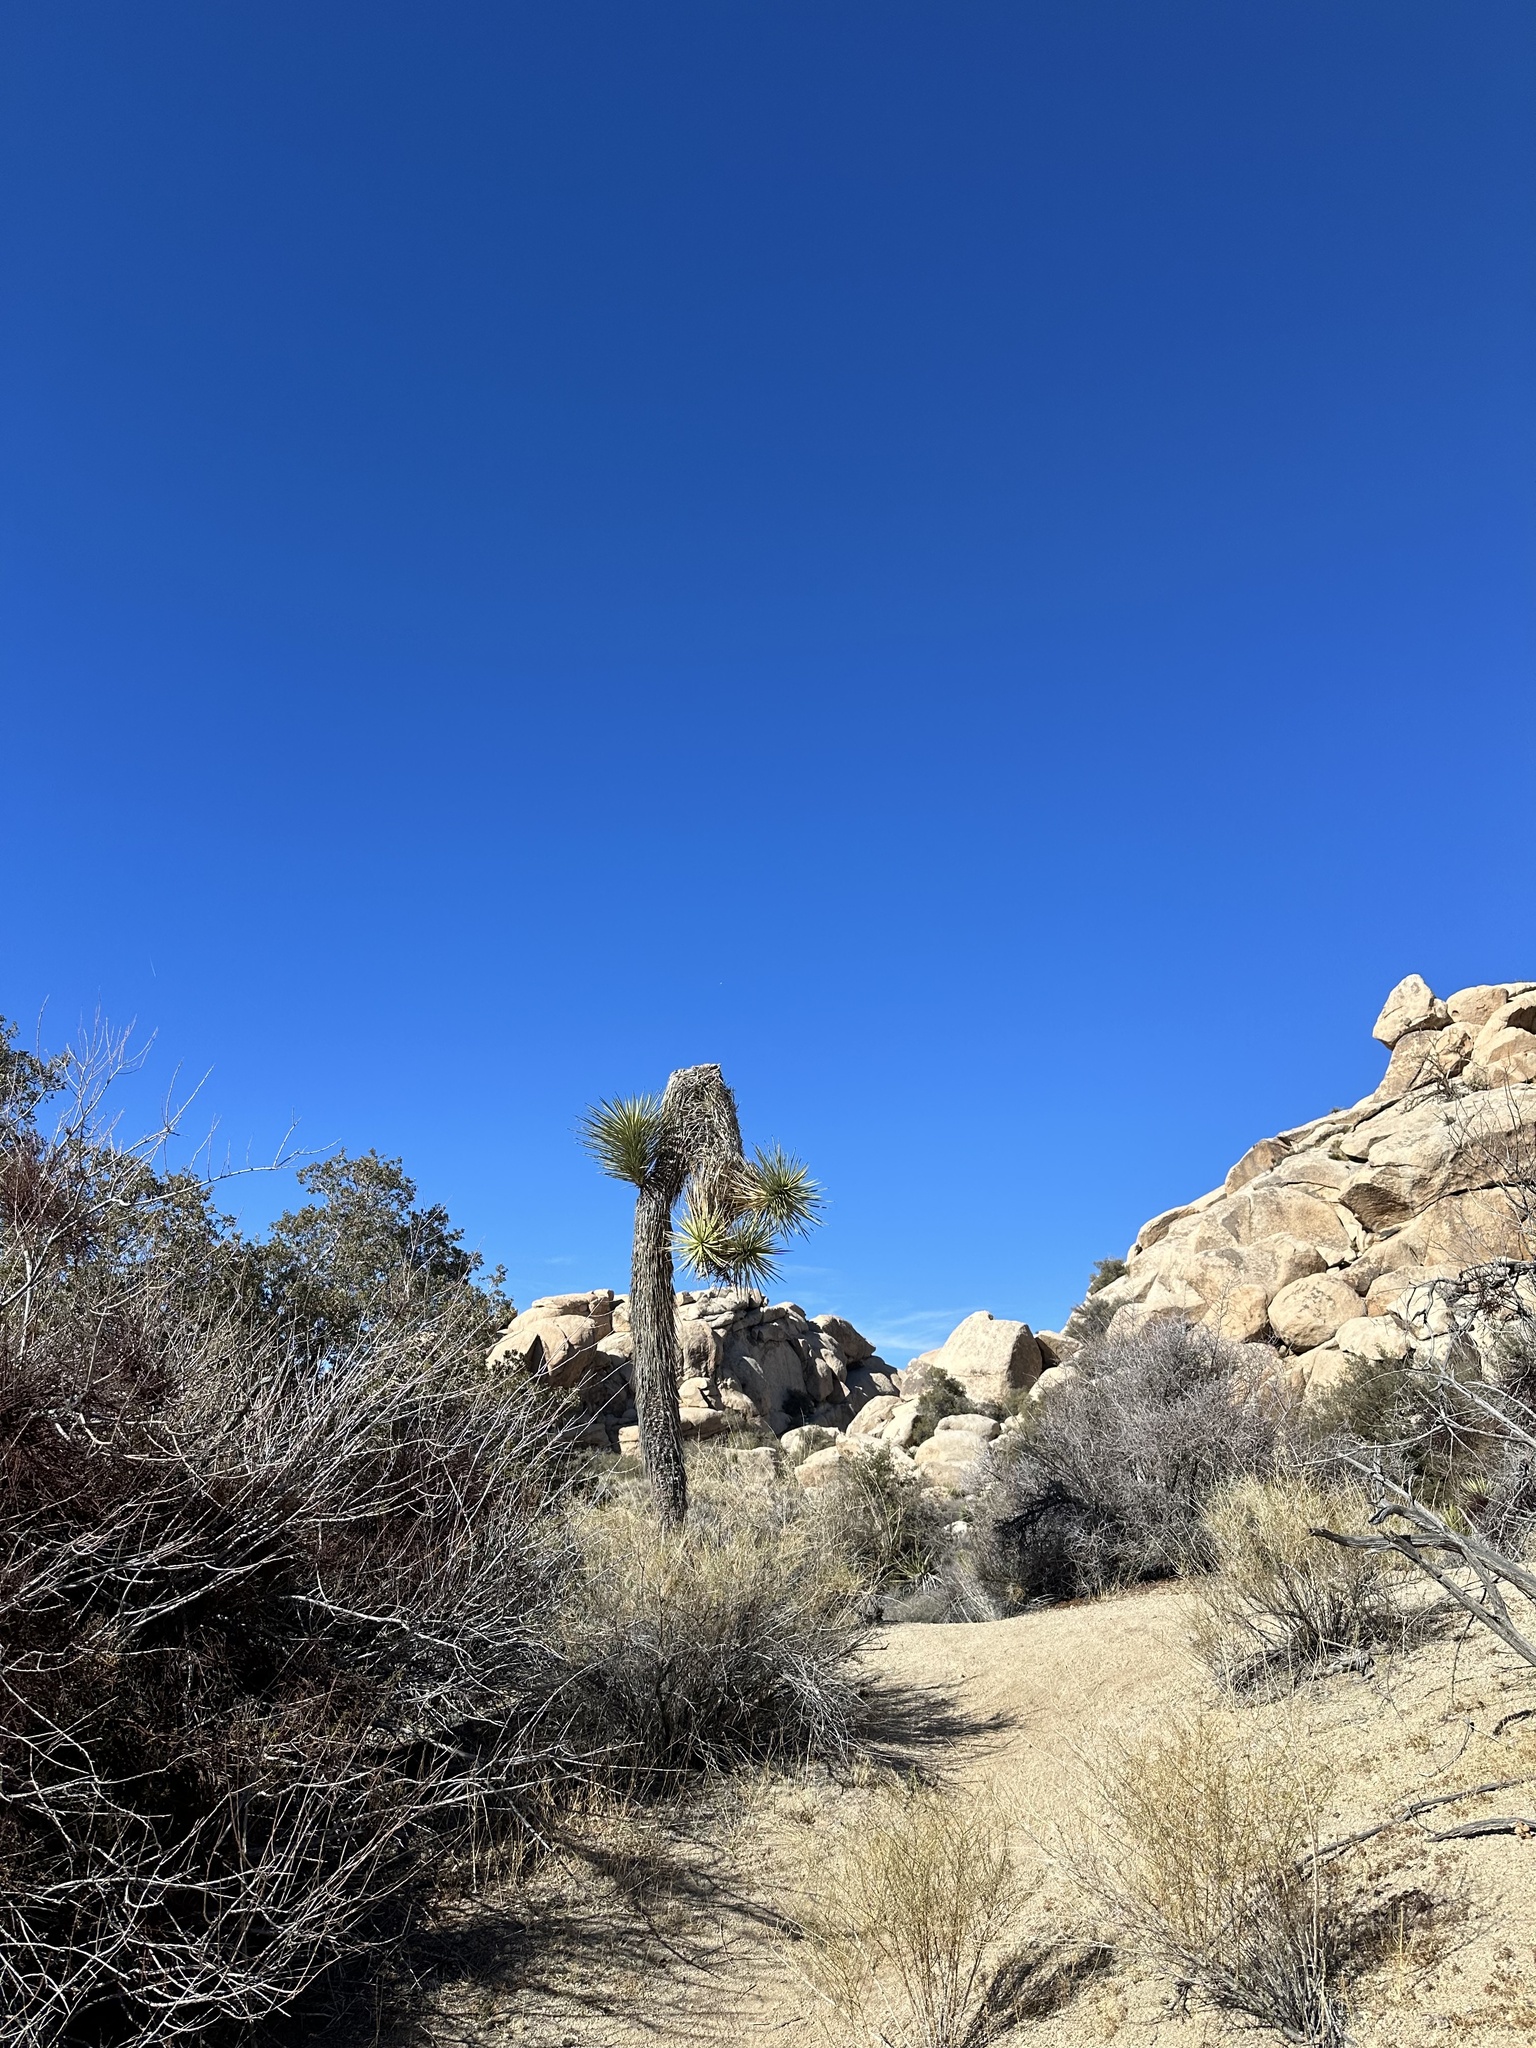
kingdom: Plantae
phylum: Tracheophyta
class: Liliopsida
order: Asparagales
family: Asparagaceae
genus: Yucca
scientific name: Yucca brevifolia
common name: Joshua tree
